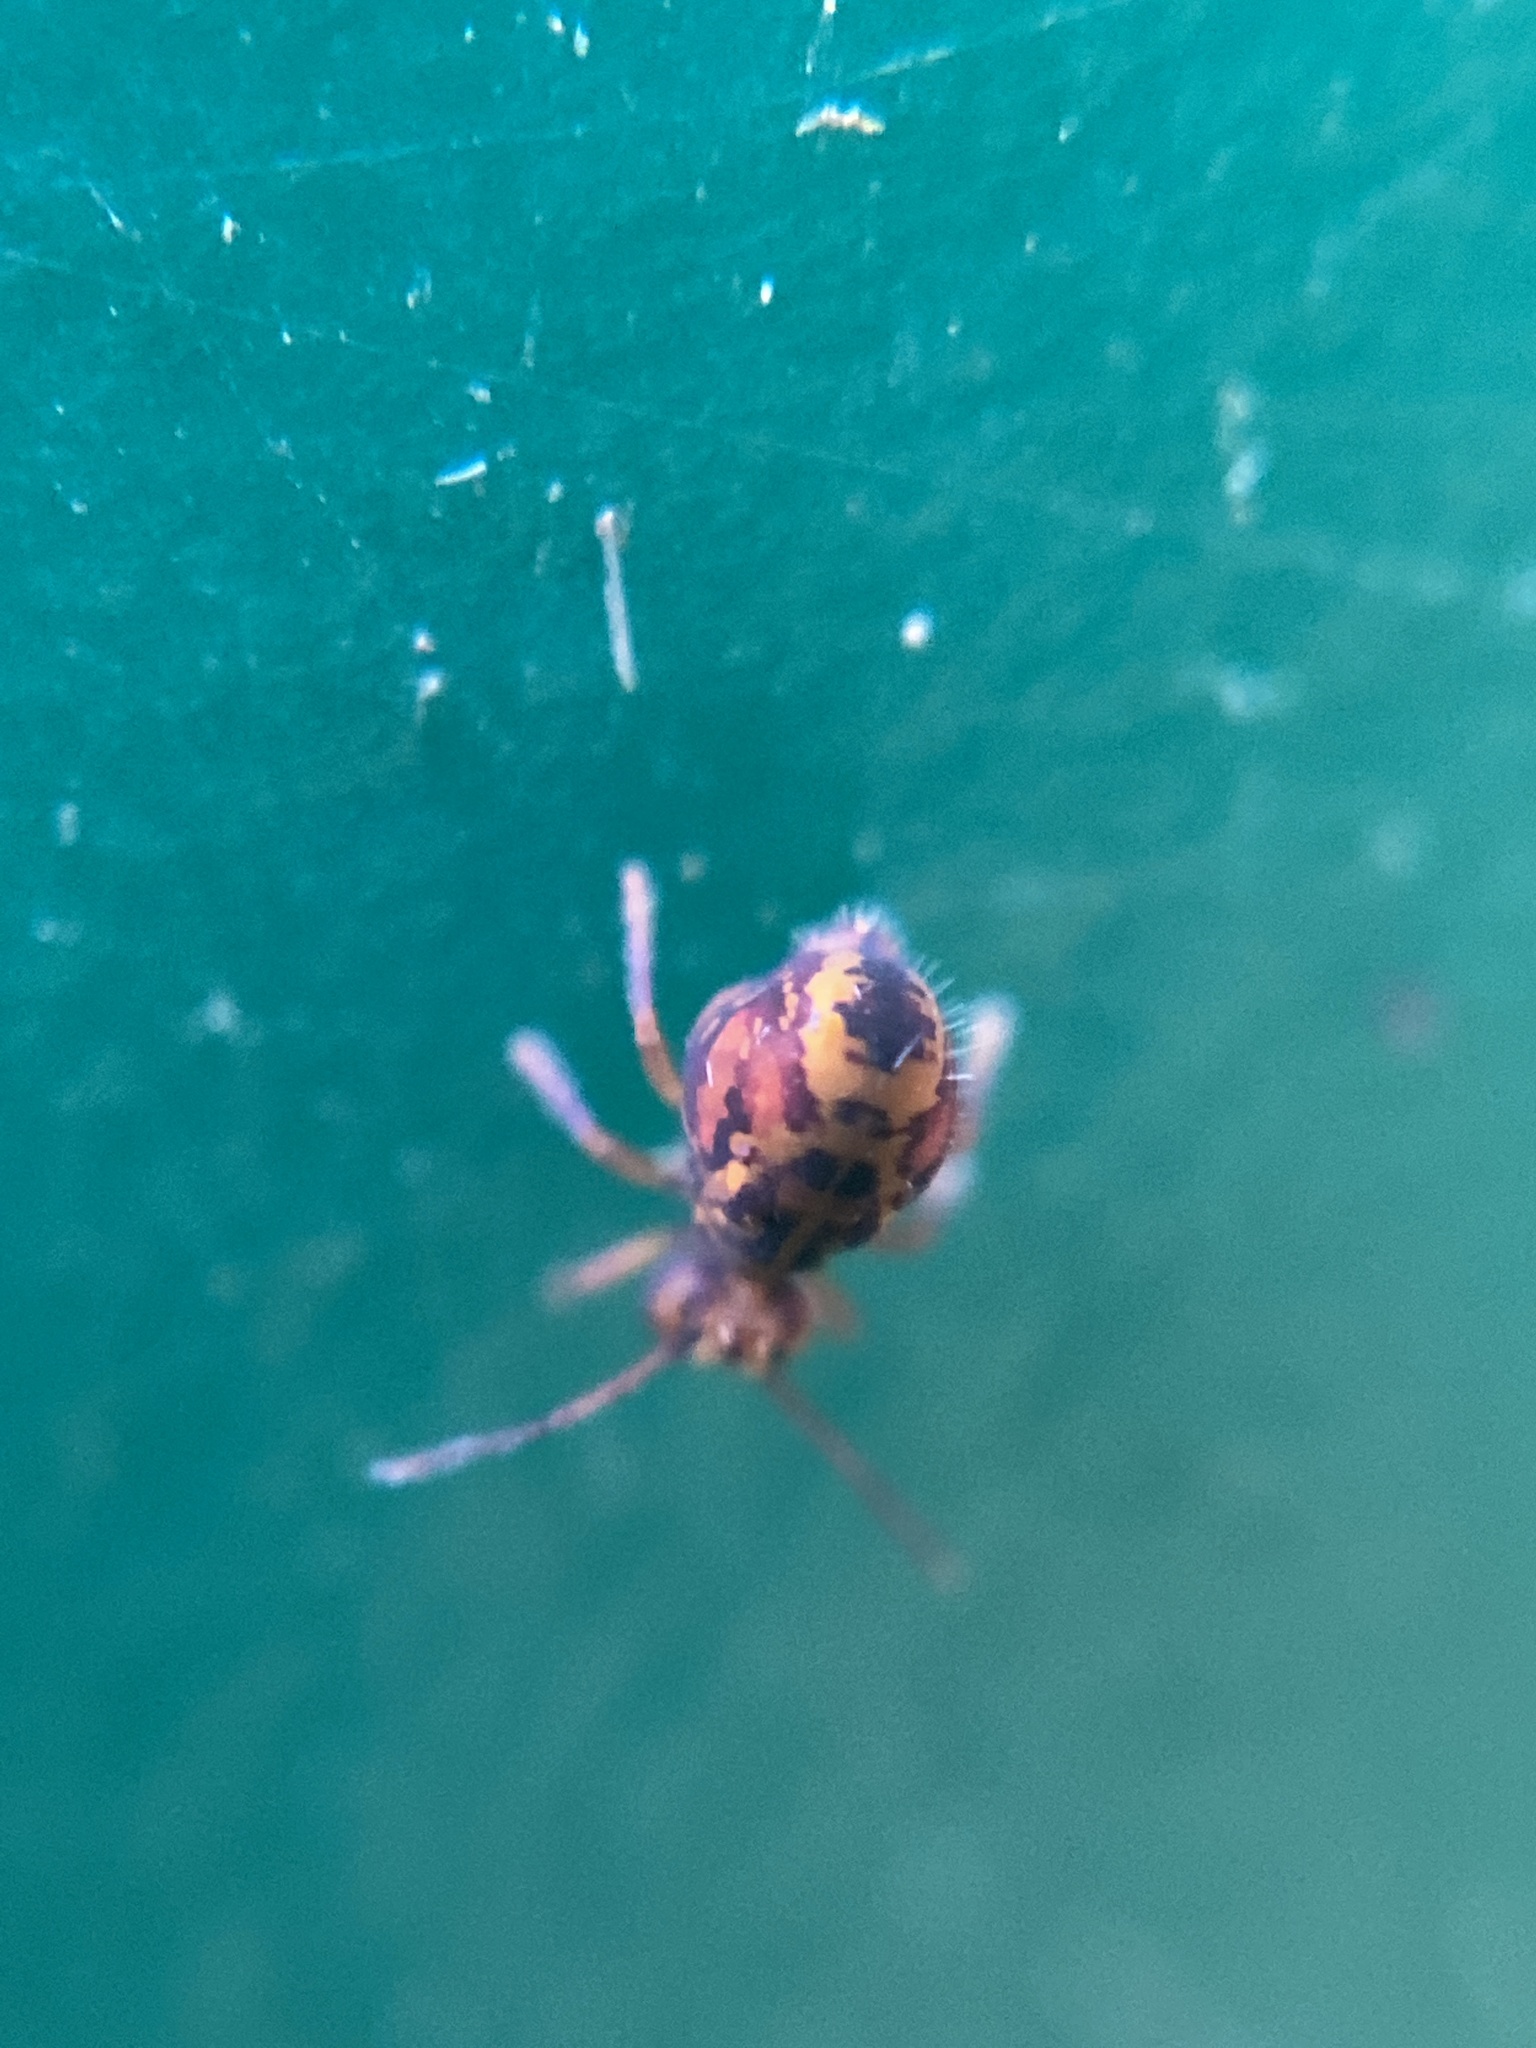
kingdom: Animalia
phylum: Arthropoda
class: Collembola
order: Symphypleona
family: Dicyrtomidae
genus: Dicyrtomina
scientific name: Dicyrtomina ornata
